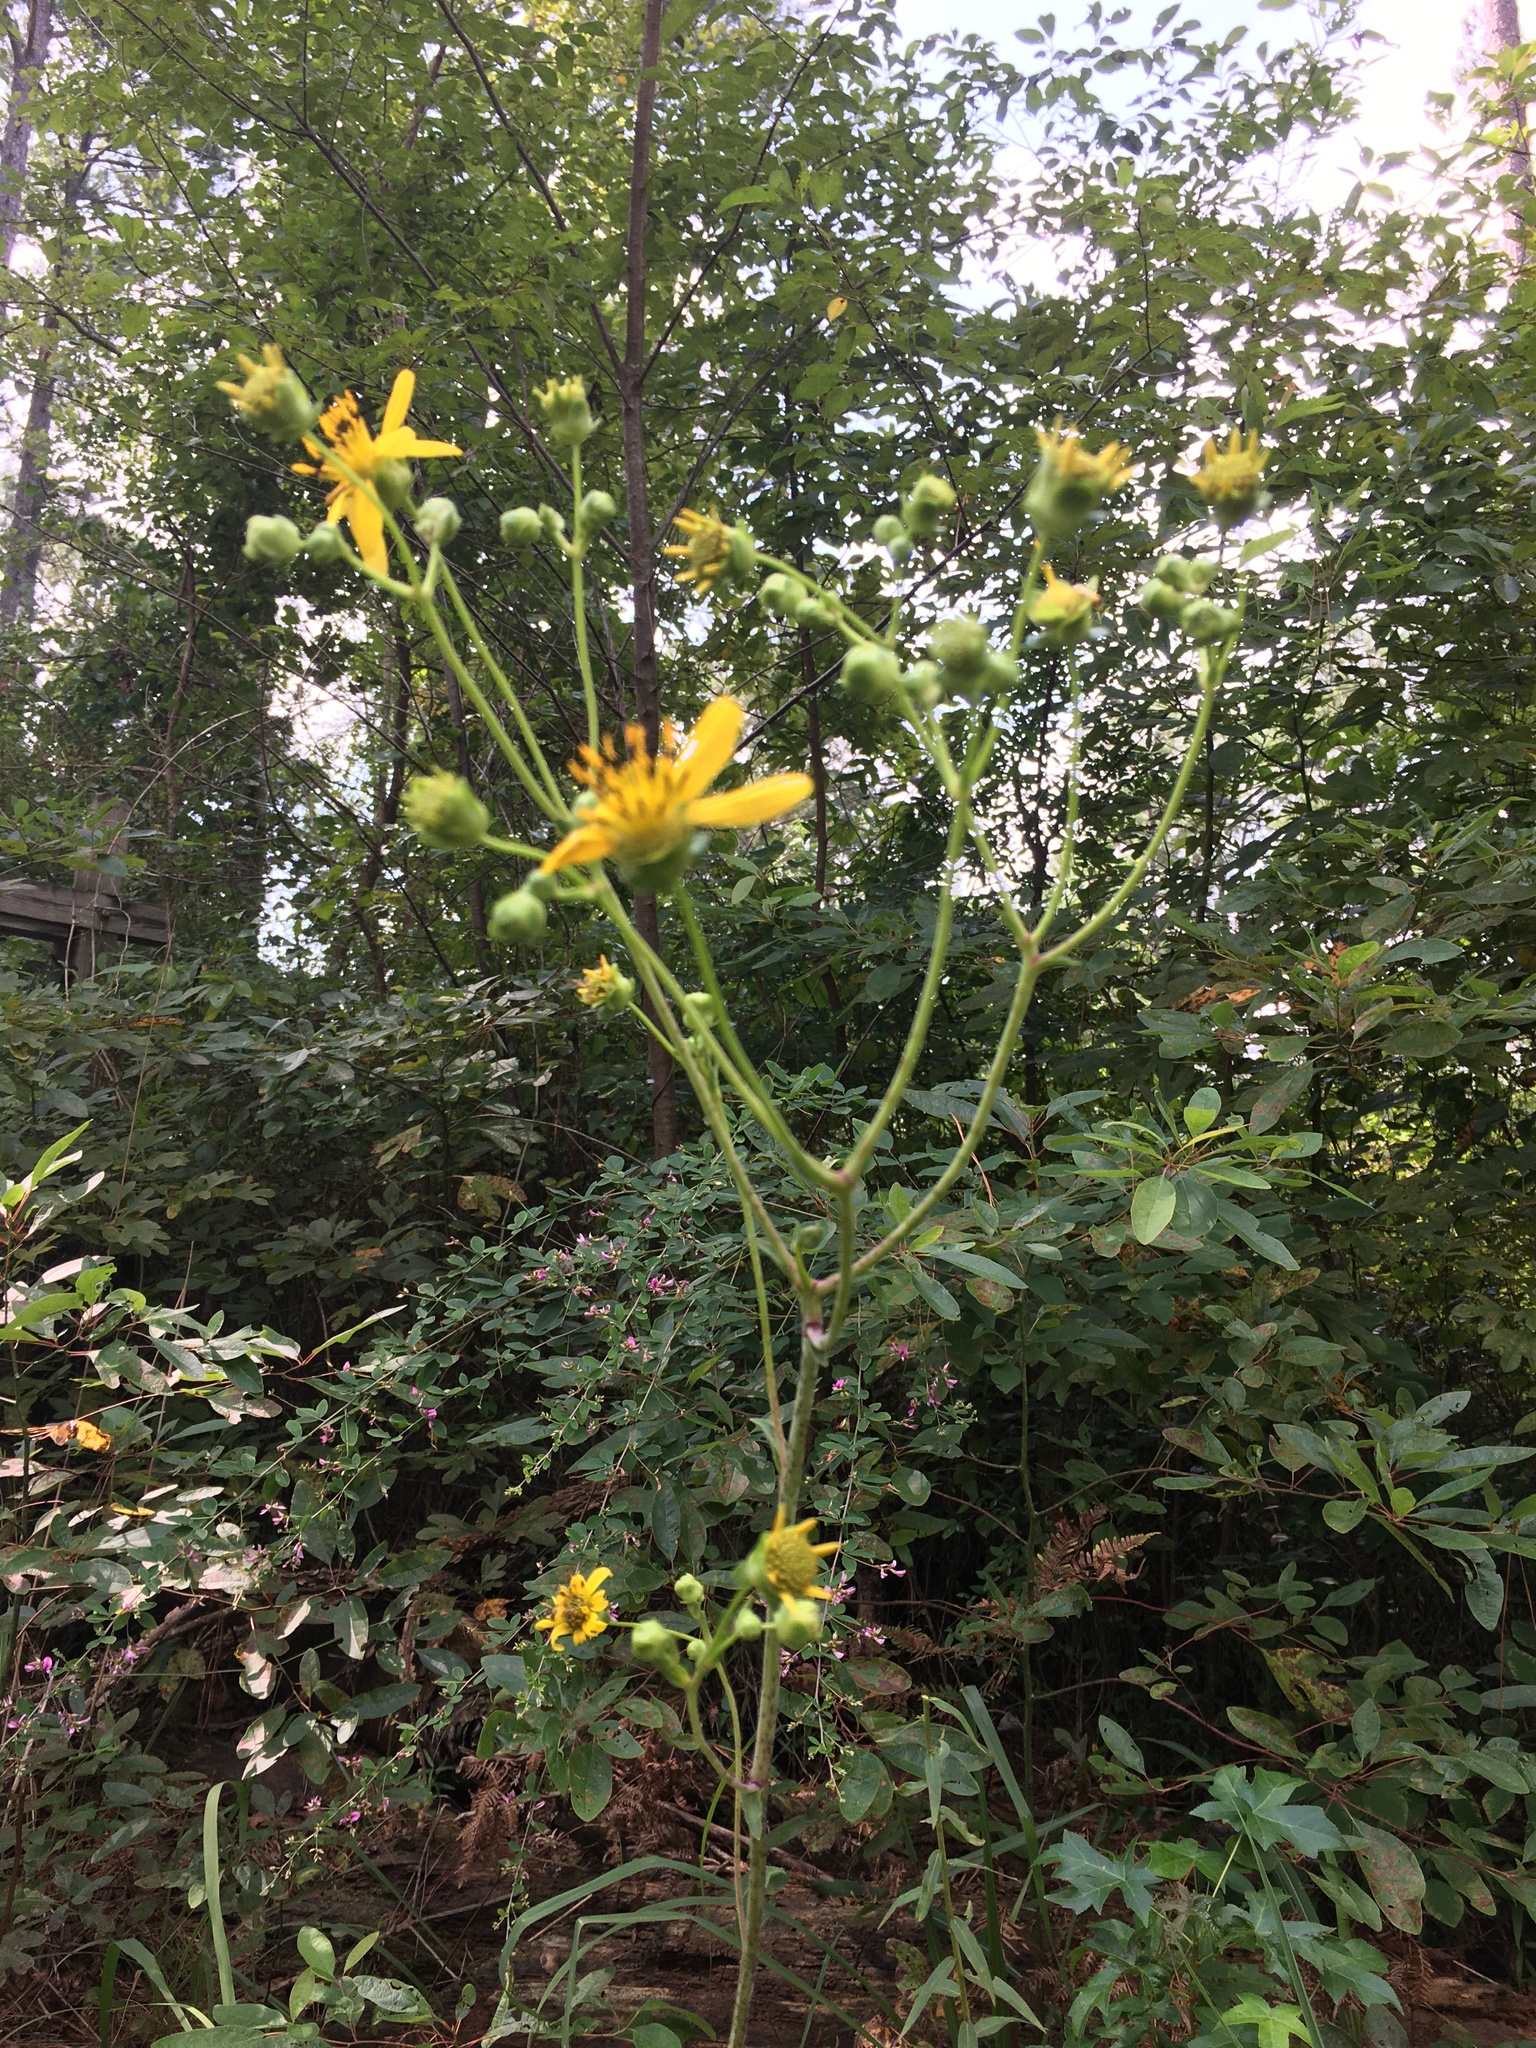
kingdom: Plantae
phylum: Tracheophyta
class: Magnoliopsida
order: Asterales
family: Asteraceae
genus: Silphium
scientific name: Silphium compositum
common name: Lesser basal-leaf rosinweed
